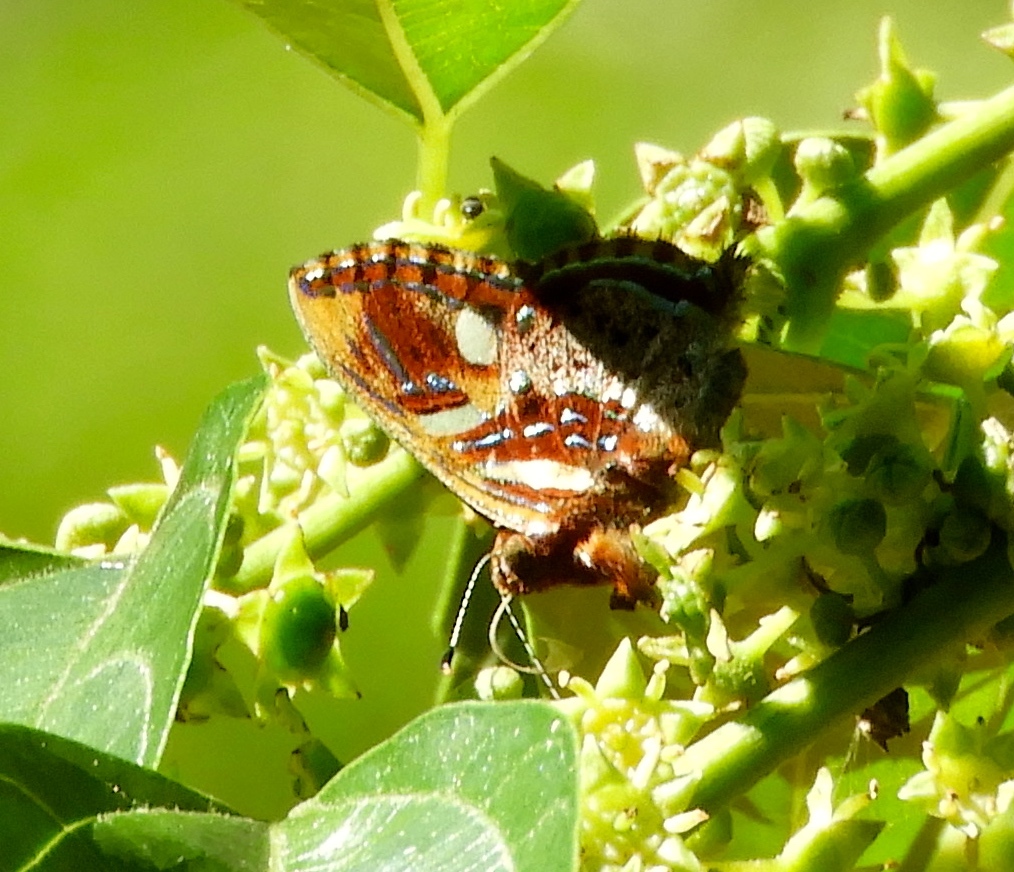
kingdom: Animalia
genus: Anteros
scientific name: Anteros carausius
